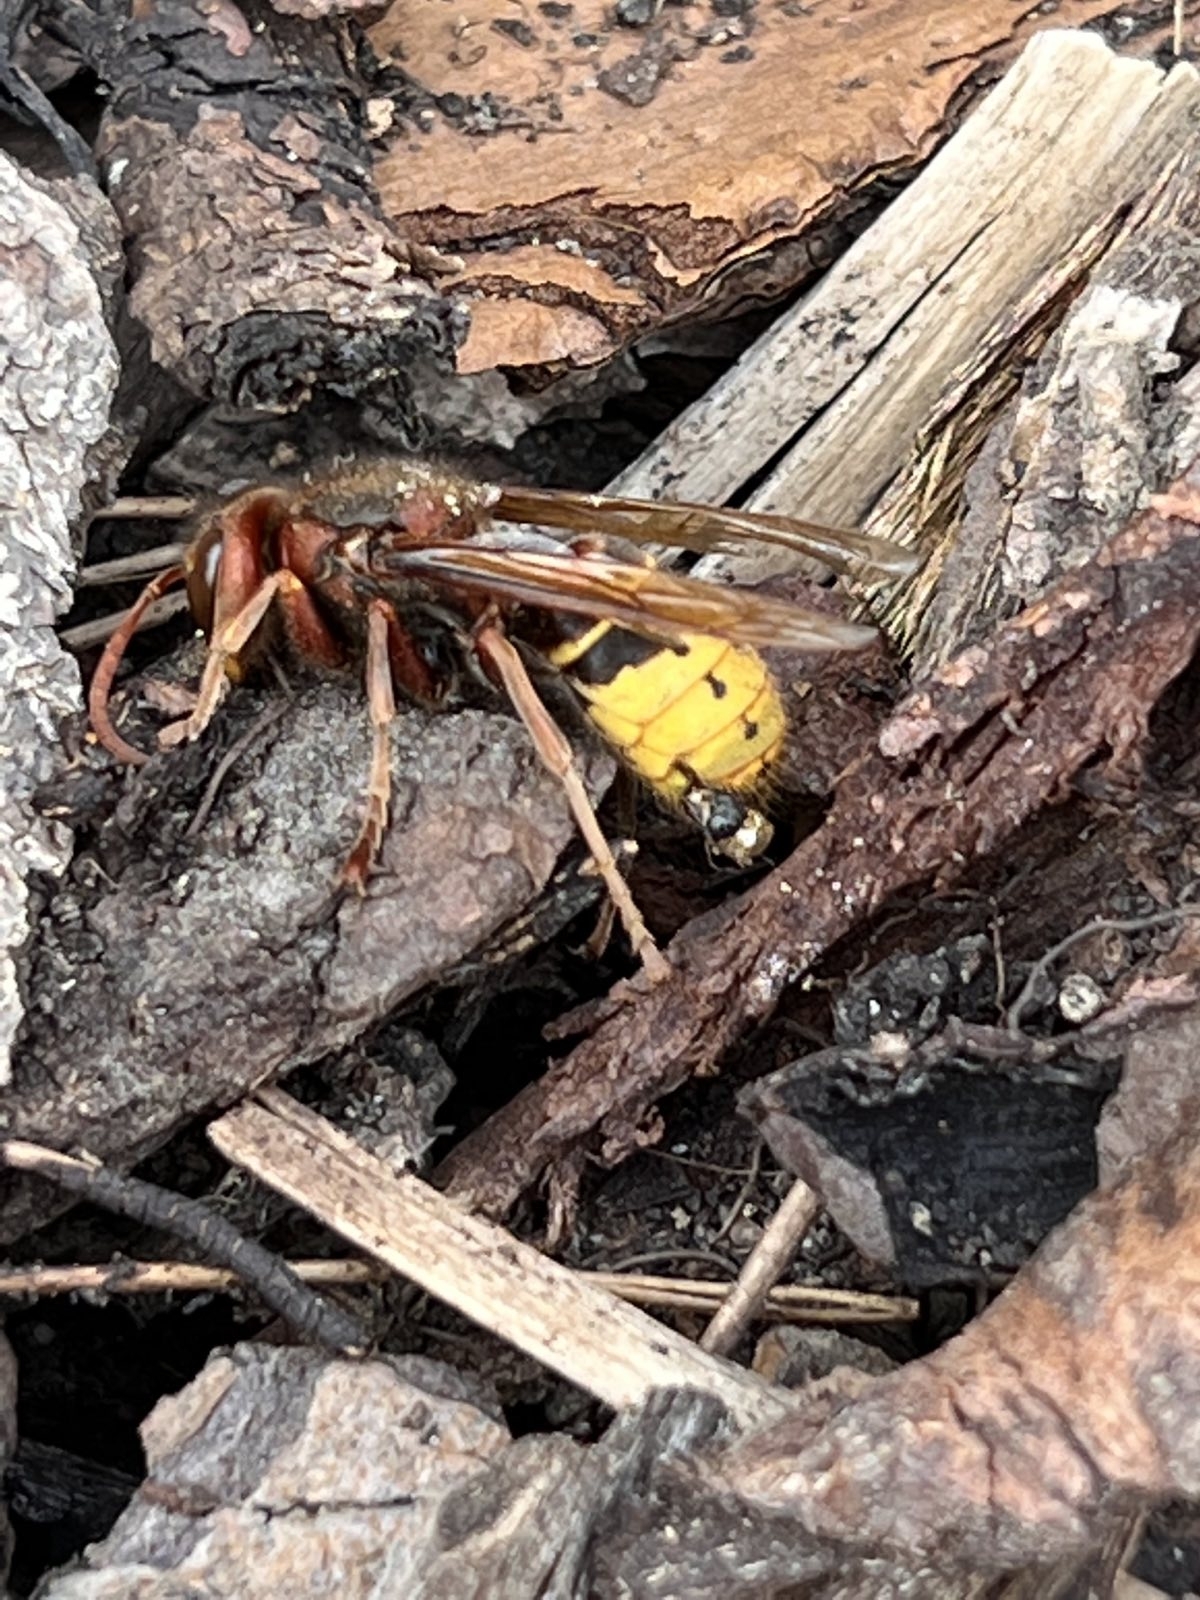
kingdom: Animalia
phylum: Arthropoda
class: Insecta
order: Hymenoptera
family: Vespidae
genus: Vespa
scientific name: Vespa crabro
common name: Hornet
